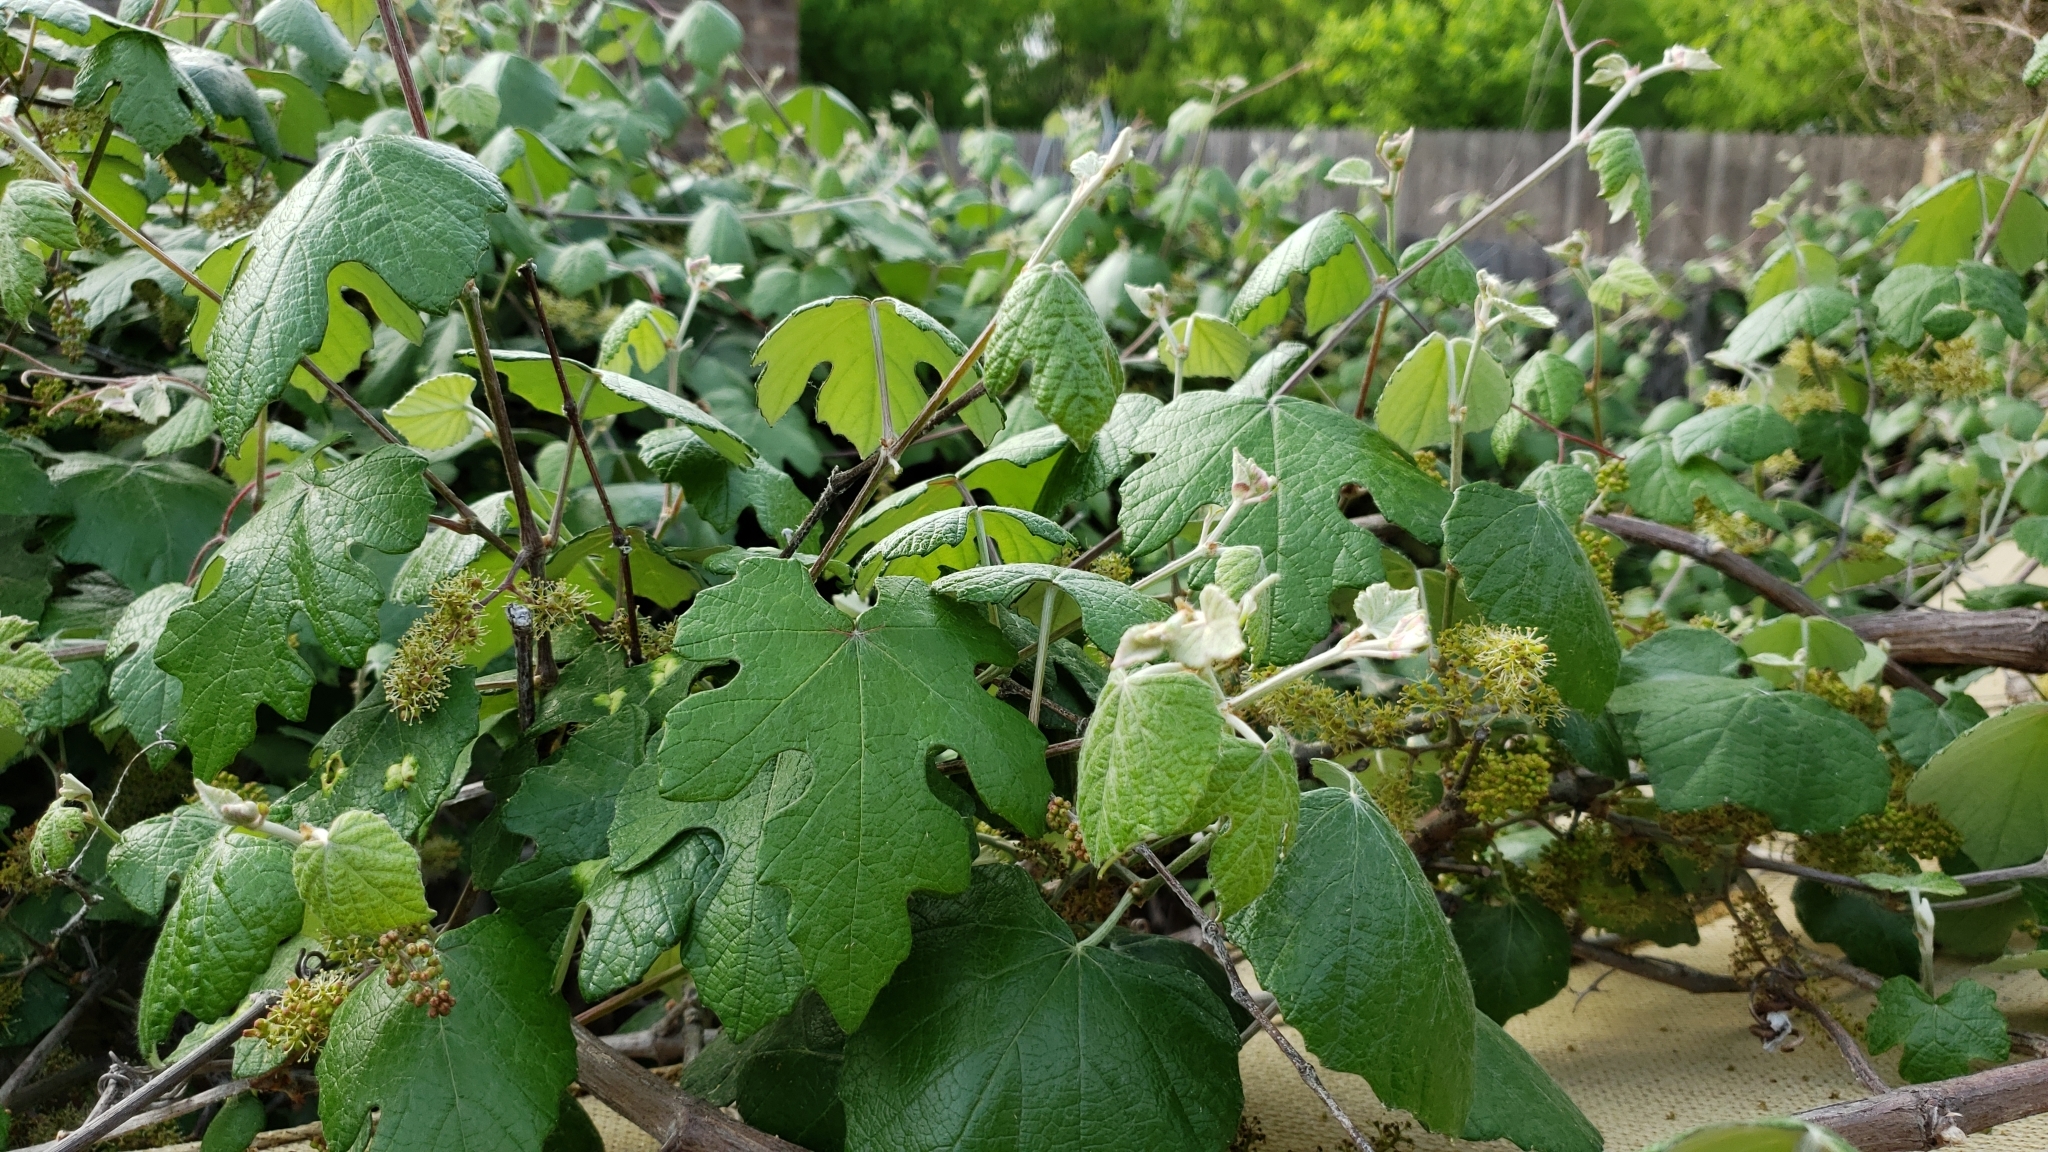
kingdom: Plantae
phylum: Tracheophyta
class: Magnoliopsida
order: Vitales
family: Vitaceae
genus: Vitis
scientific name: Vitis mustangensis
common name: Mustang grape
